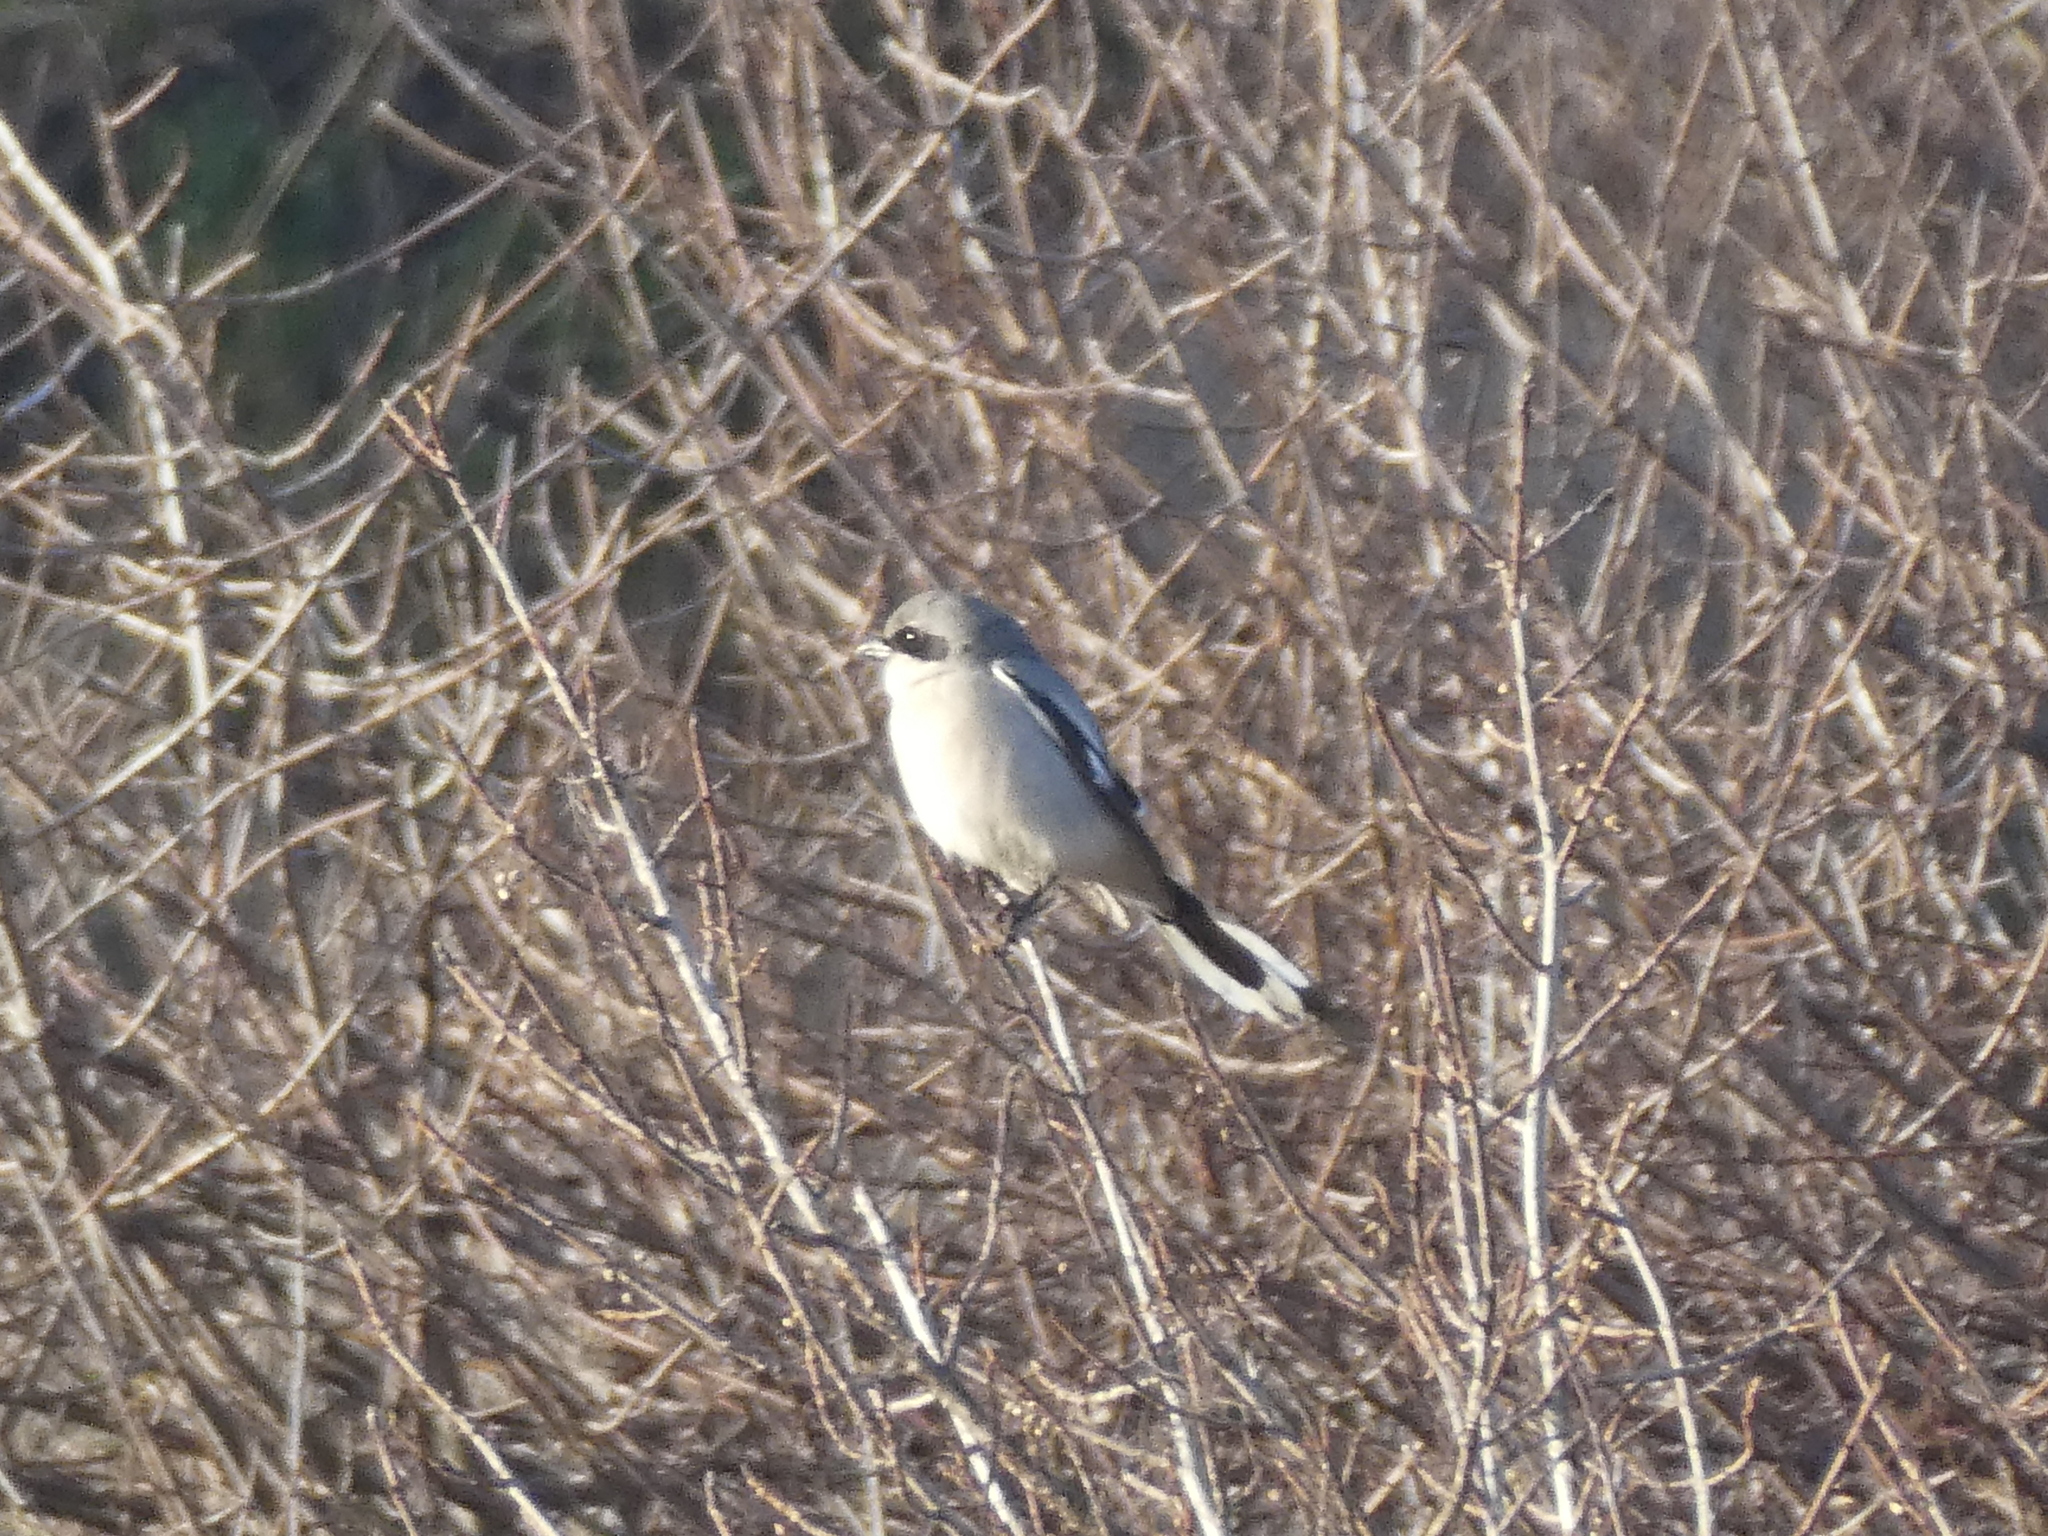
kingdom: Animalia
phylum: Chordata
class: Aves
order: Passeriformes
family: Laniidae
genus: Lanius
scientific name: Lanius ludovicianus
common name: Loggerhead shrike
